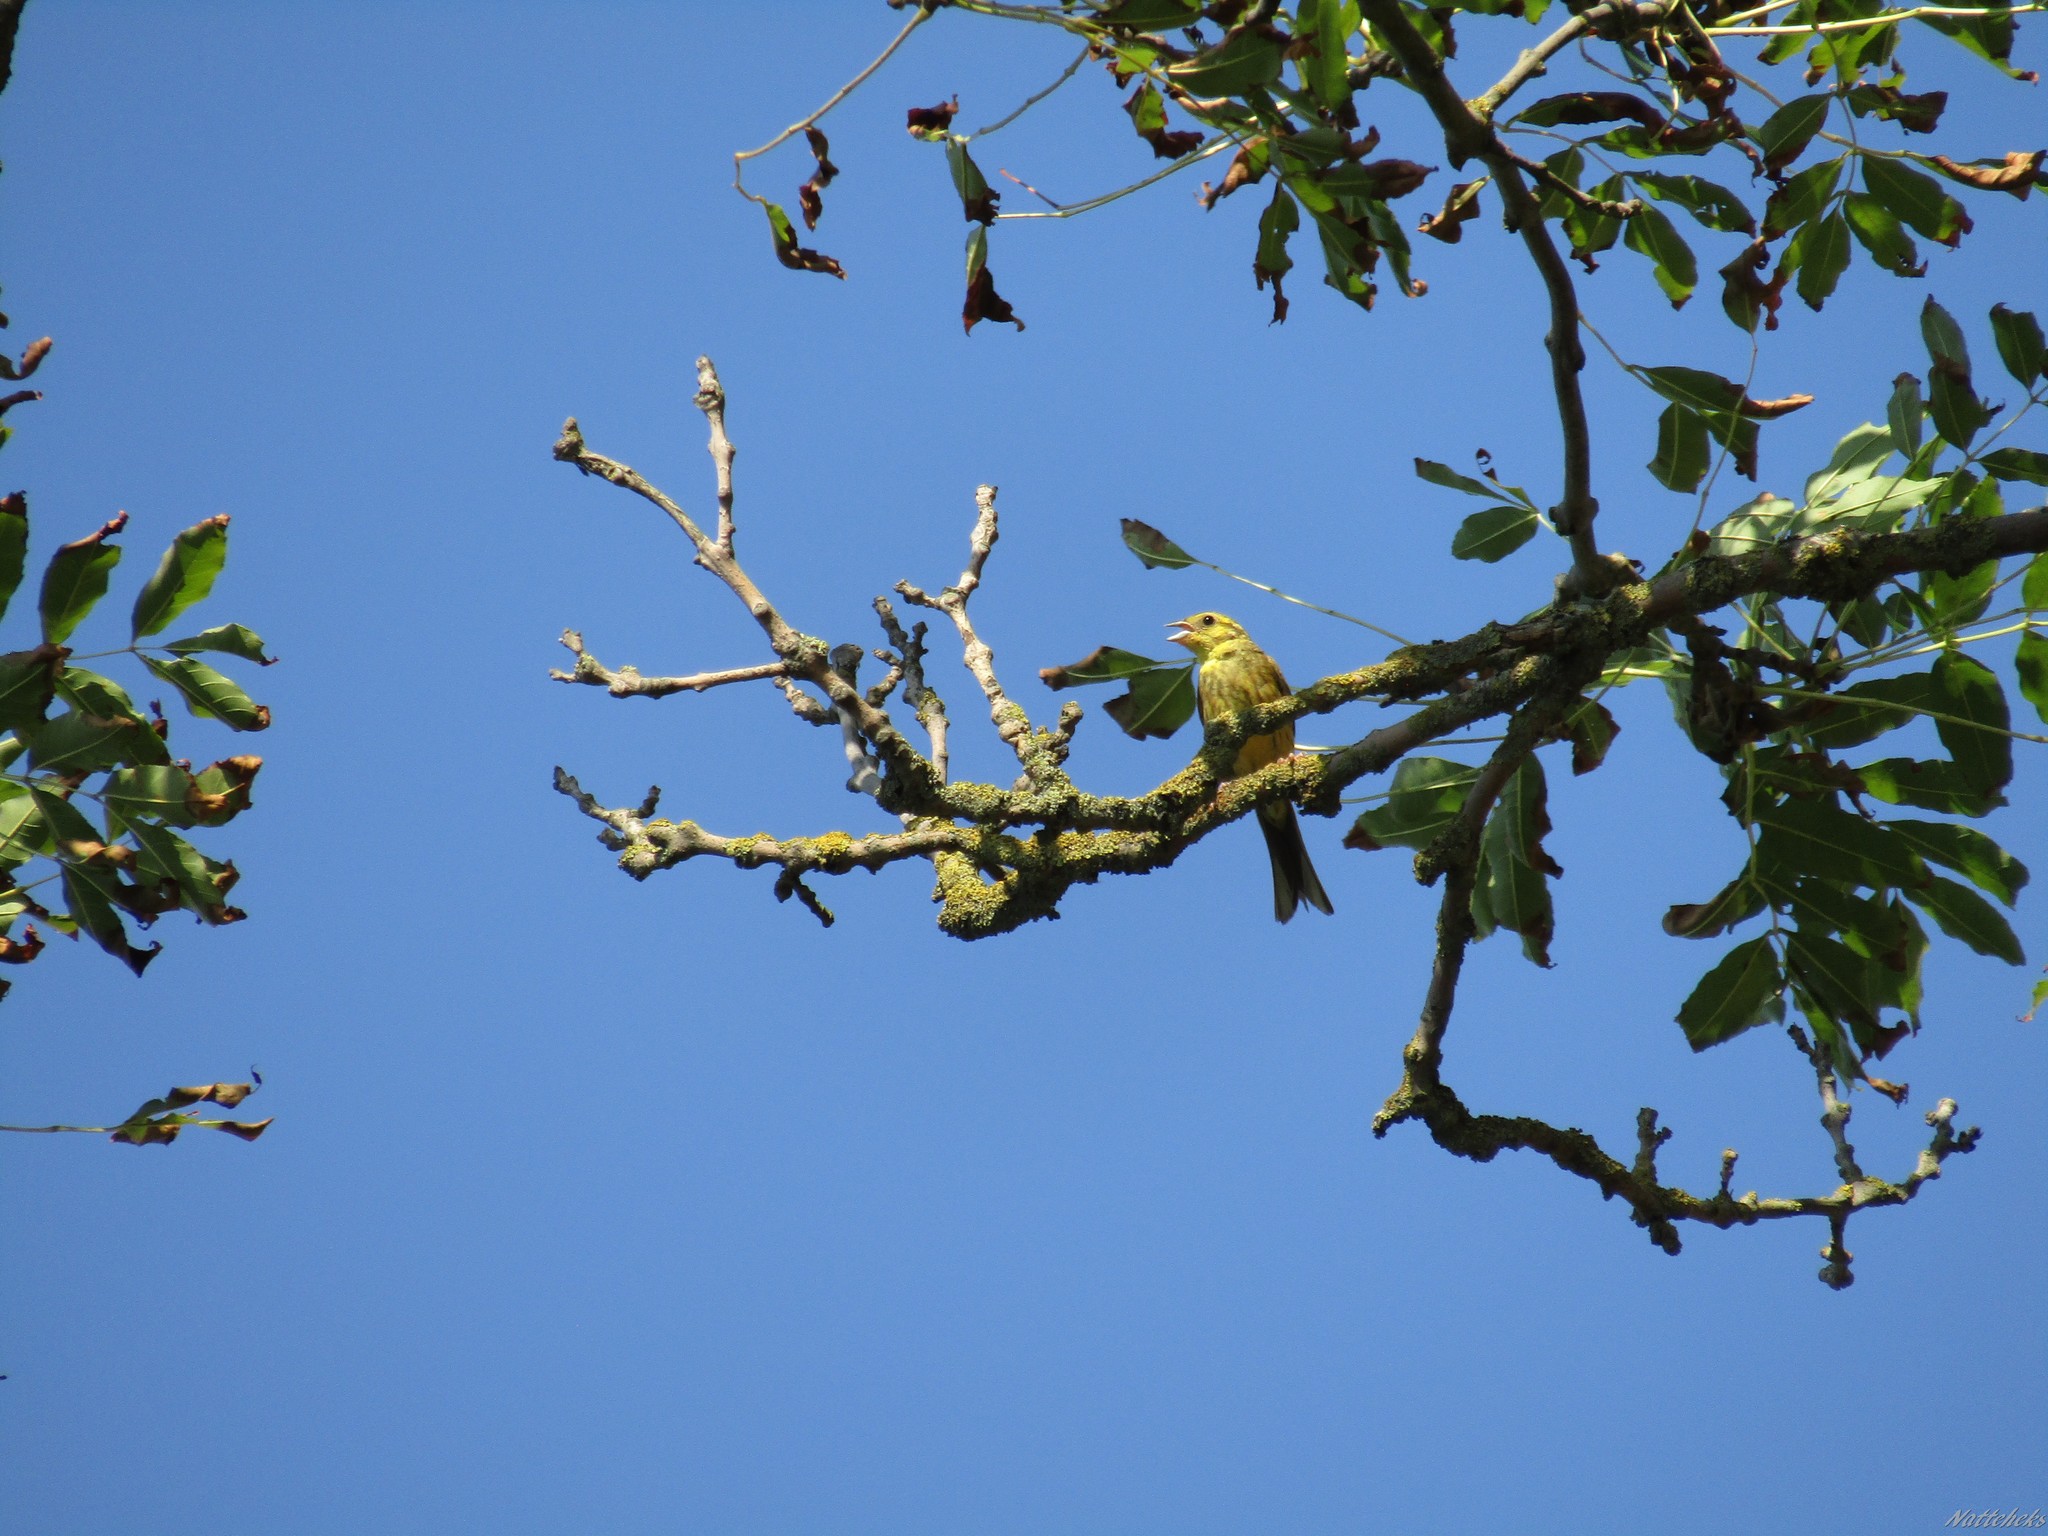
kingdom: Animalia
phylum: Chordata
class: Aves
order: Passeriformes
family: Emberizidae
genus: Emberiza
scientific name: Emberiza citrinella
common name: Yellowhammer
